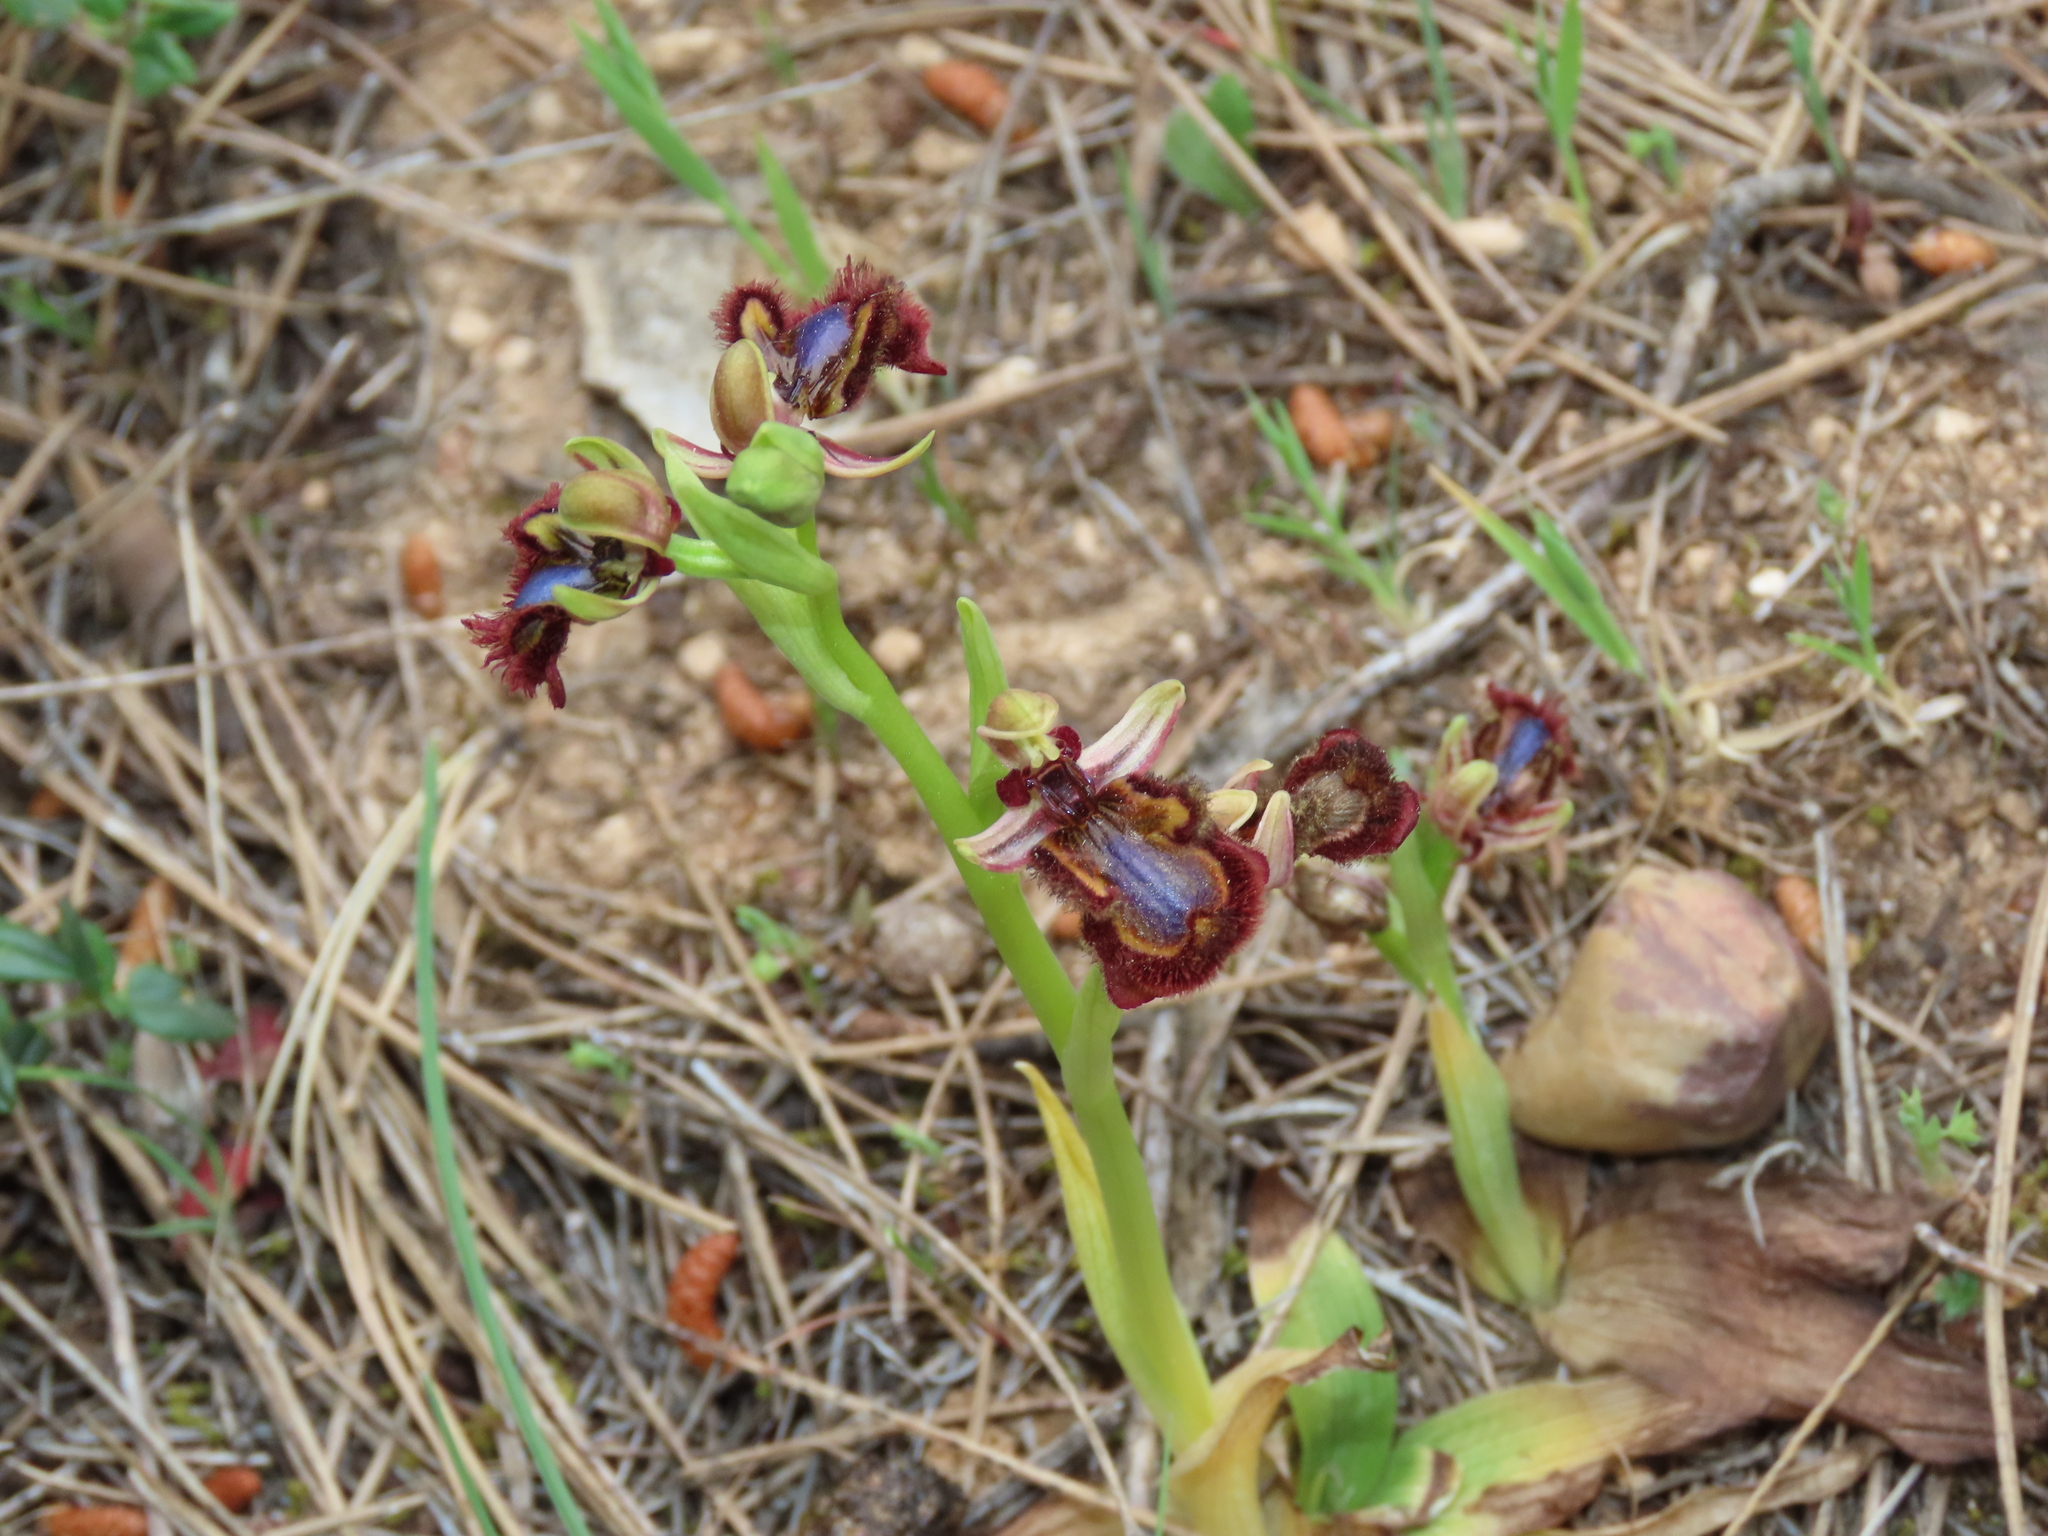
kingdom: Plantae
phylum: Tracheophyta
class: Liliopsida
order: Asparagales
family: Orchidaceae
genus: Ophrys
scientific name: Ophrys speculum
